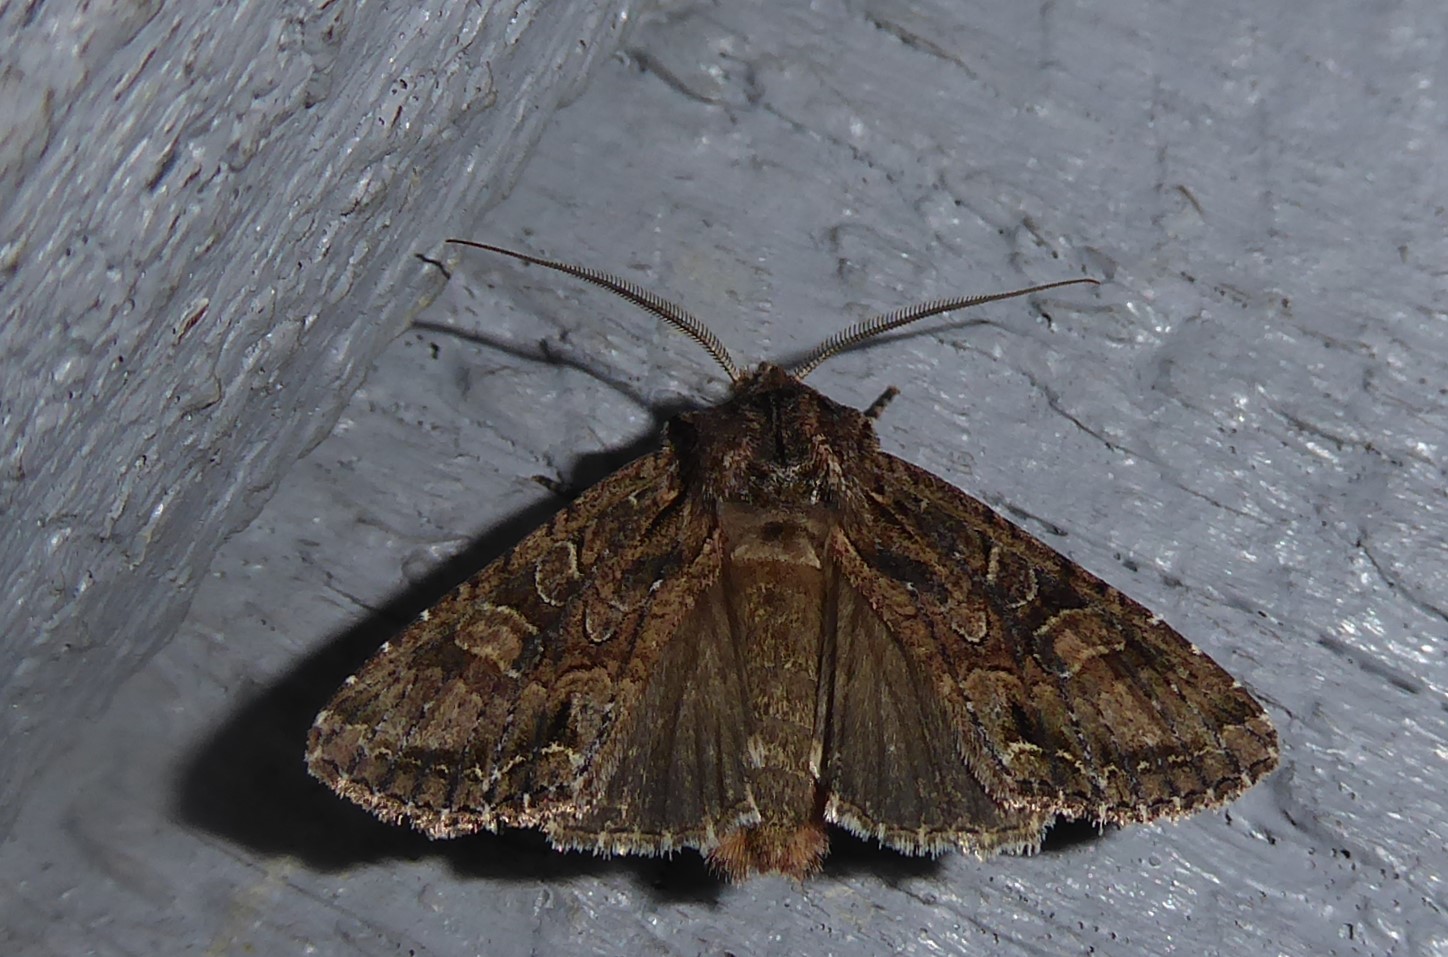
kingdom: Animalia
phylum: Arthropoda
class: Insecta
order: Lepidoptera
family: Noctuidae
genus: Ichneutica
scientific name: Ichneutica mutans
